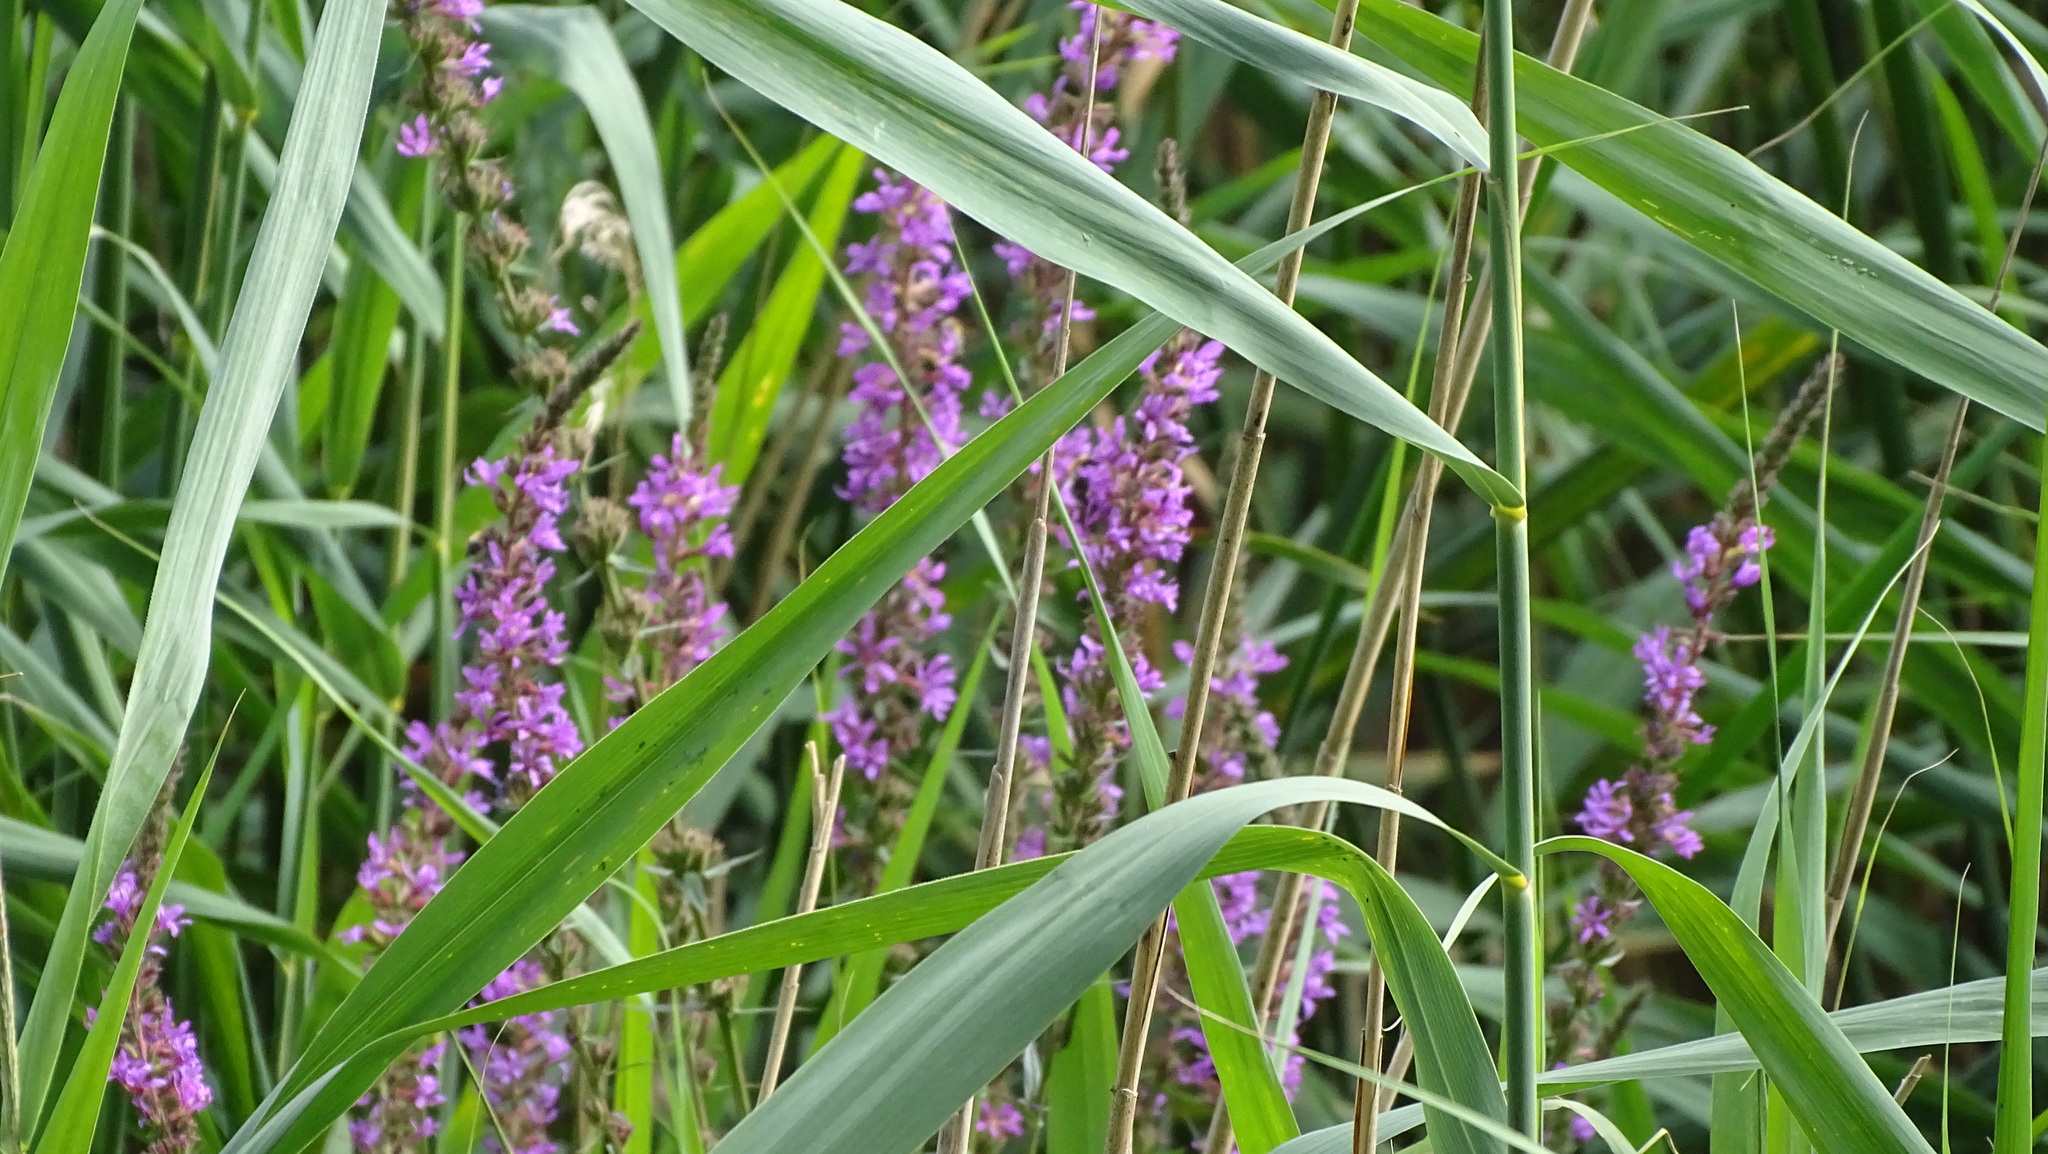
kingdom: Plantae
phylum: Tracheophyta
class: Magnoliopsida
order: Myrtales
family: Lythraceae
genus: Lythrum
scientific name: Lythrum salicaria
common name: Purple loosestrife
